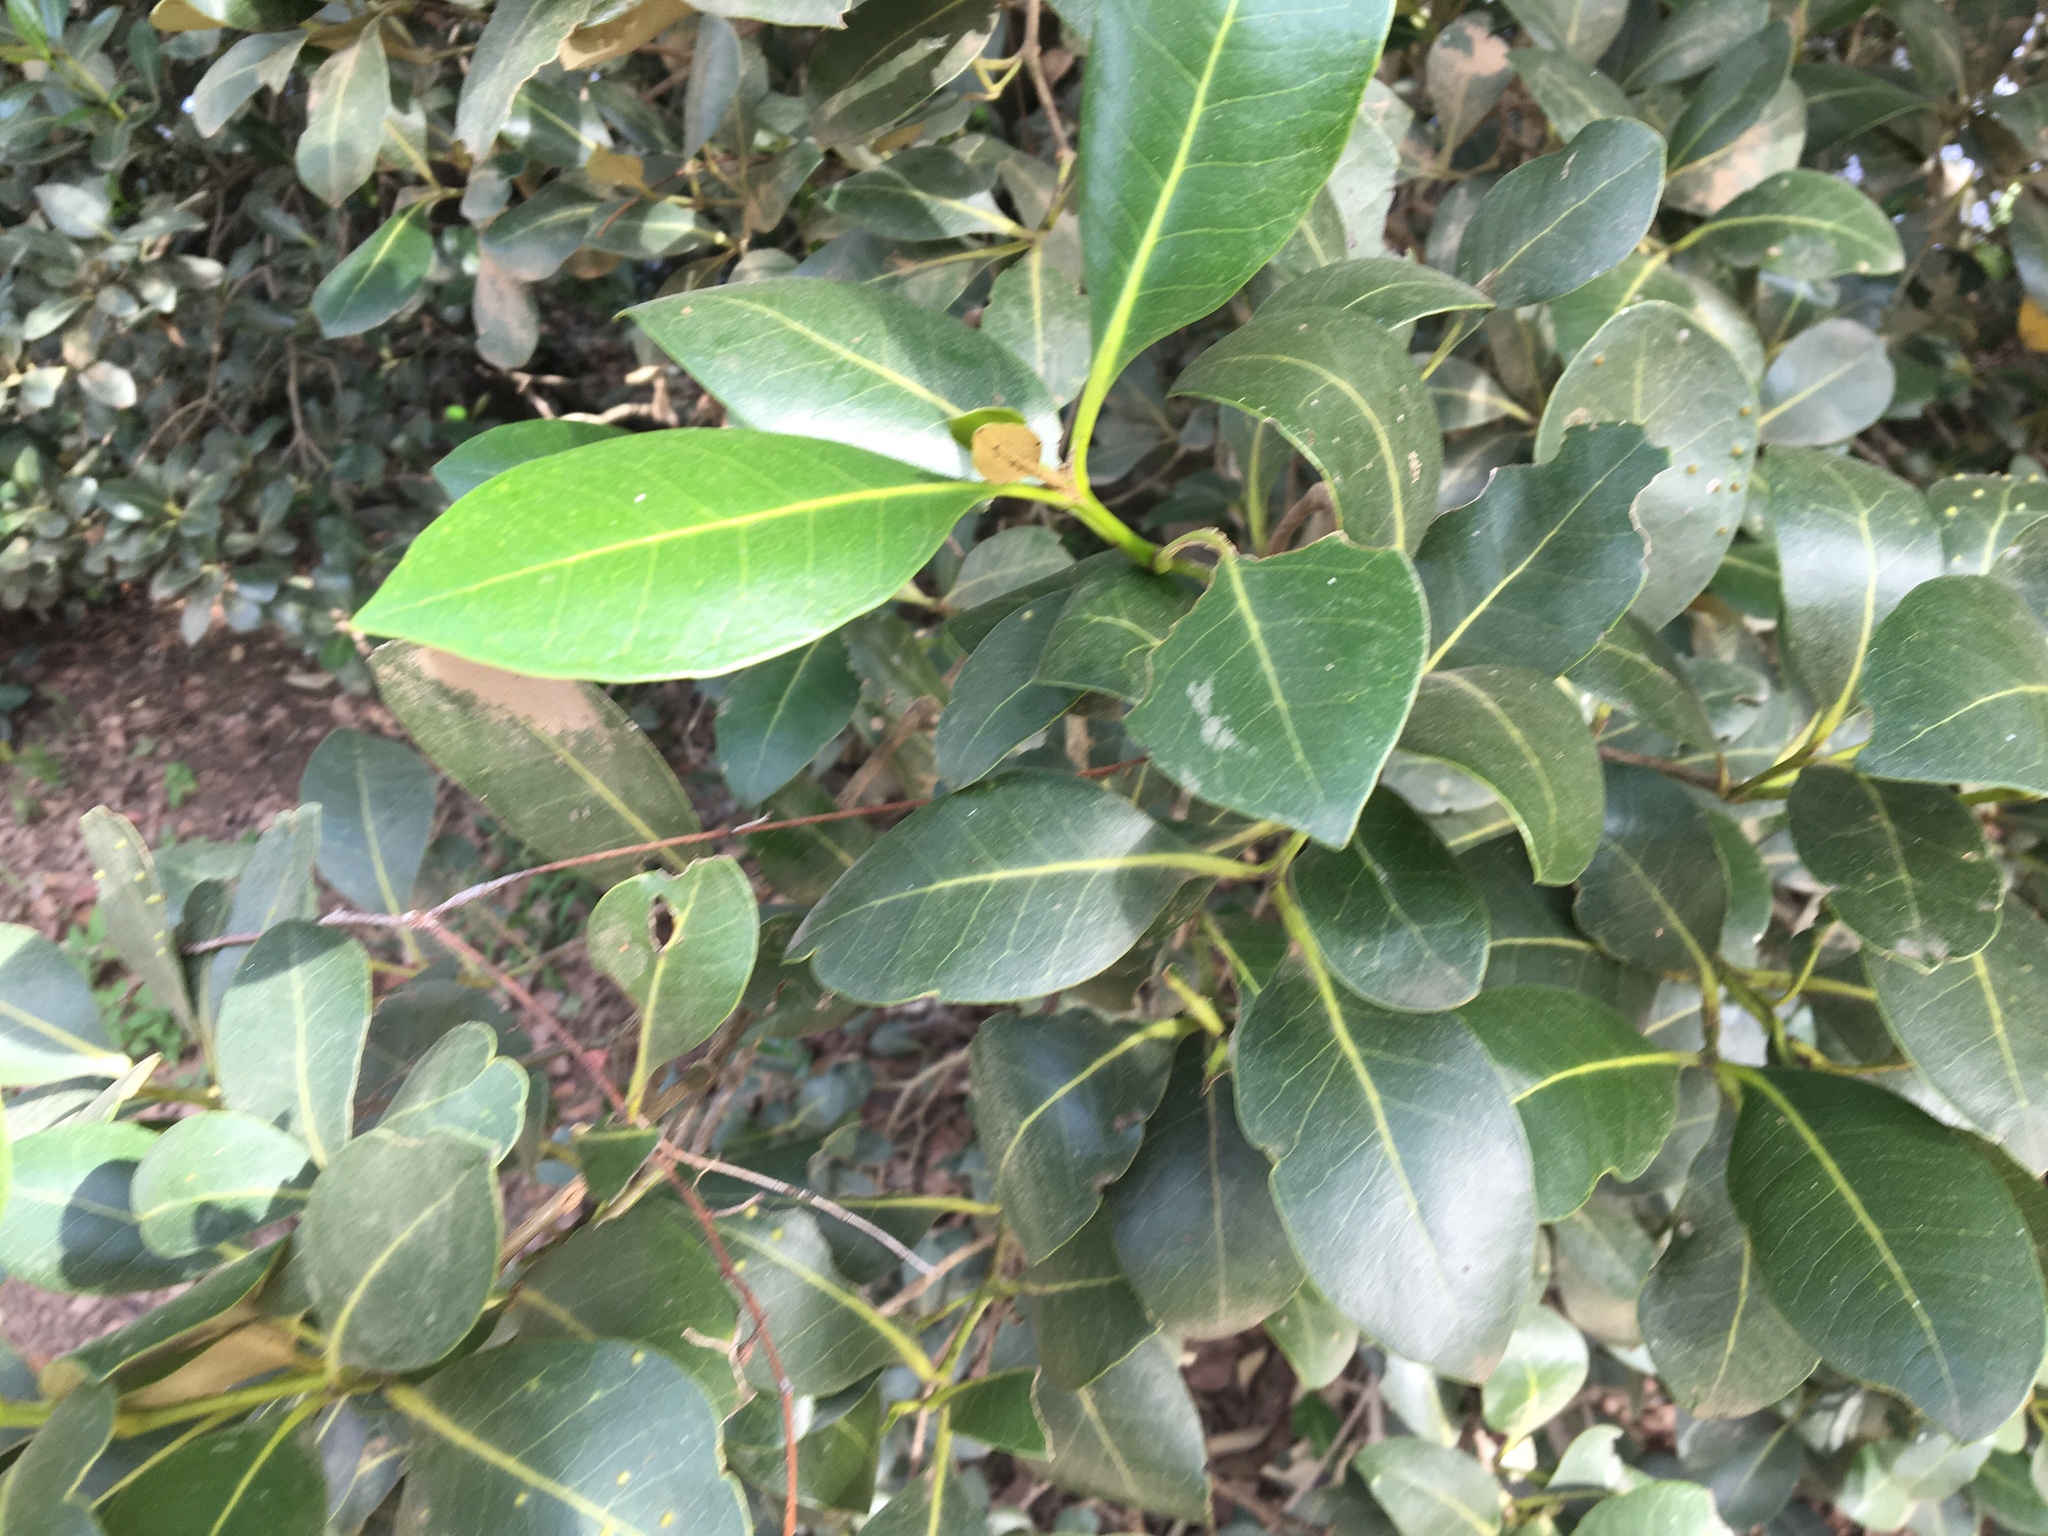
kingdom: Plantae
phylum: Tracheophyta
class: Magnoliopsida
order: Lamiales
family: Acanthaceae
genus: Avicennia
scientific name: Avicennia marina
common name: Gray mangrove
